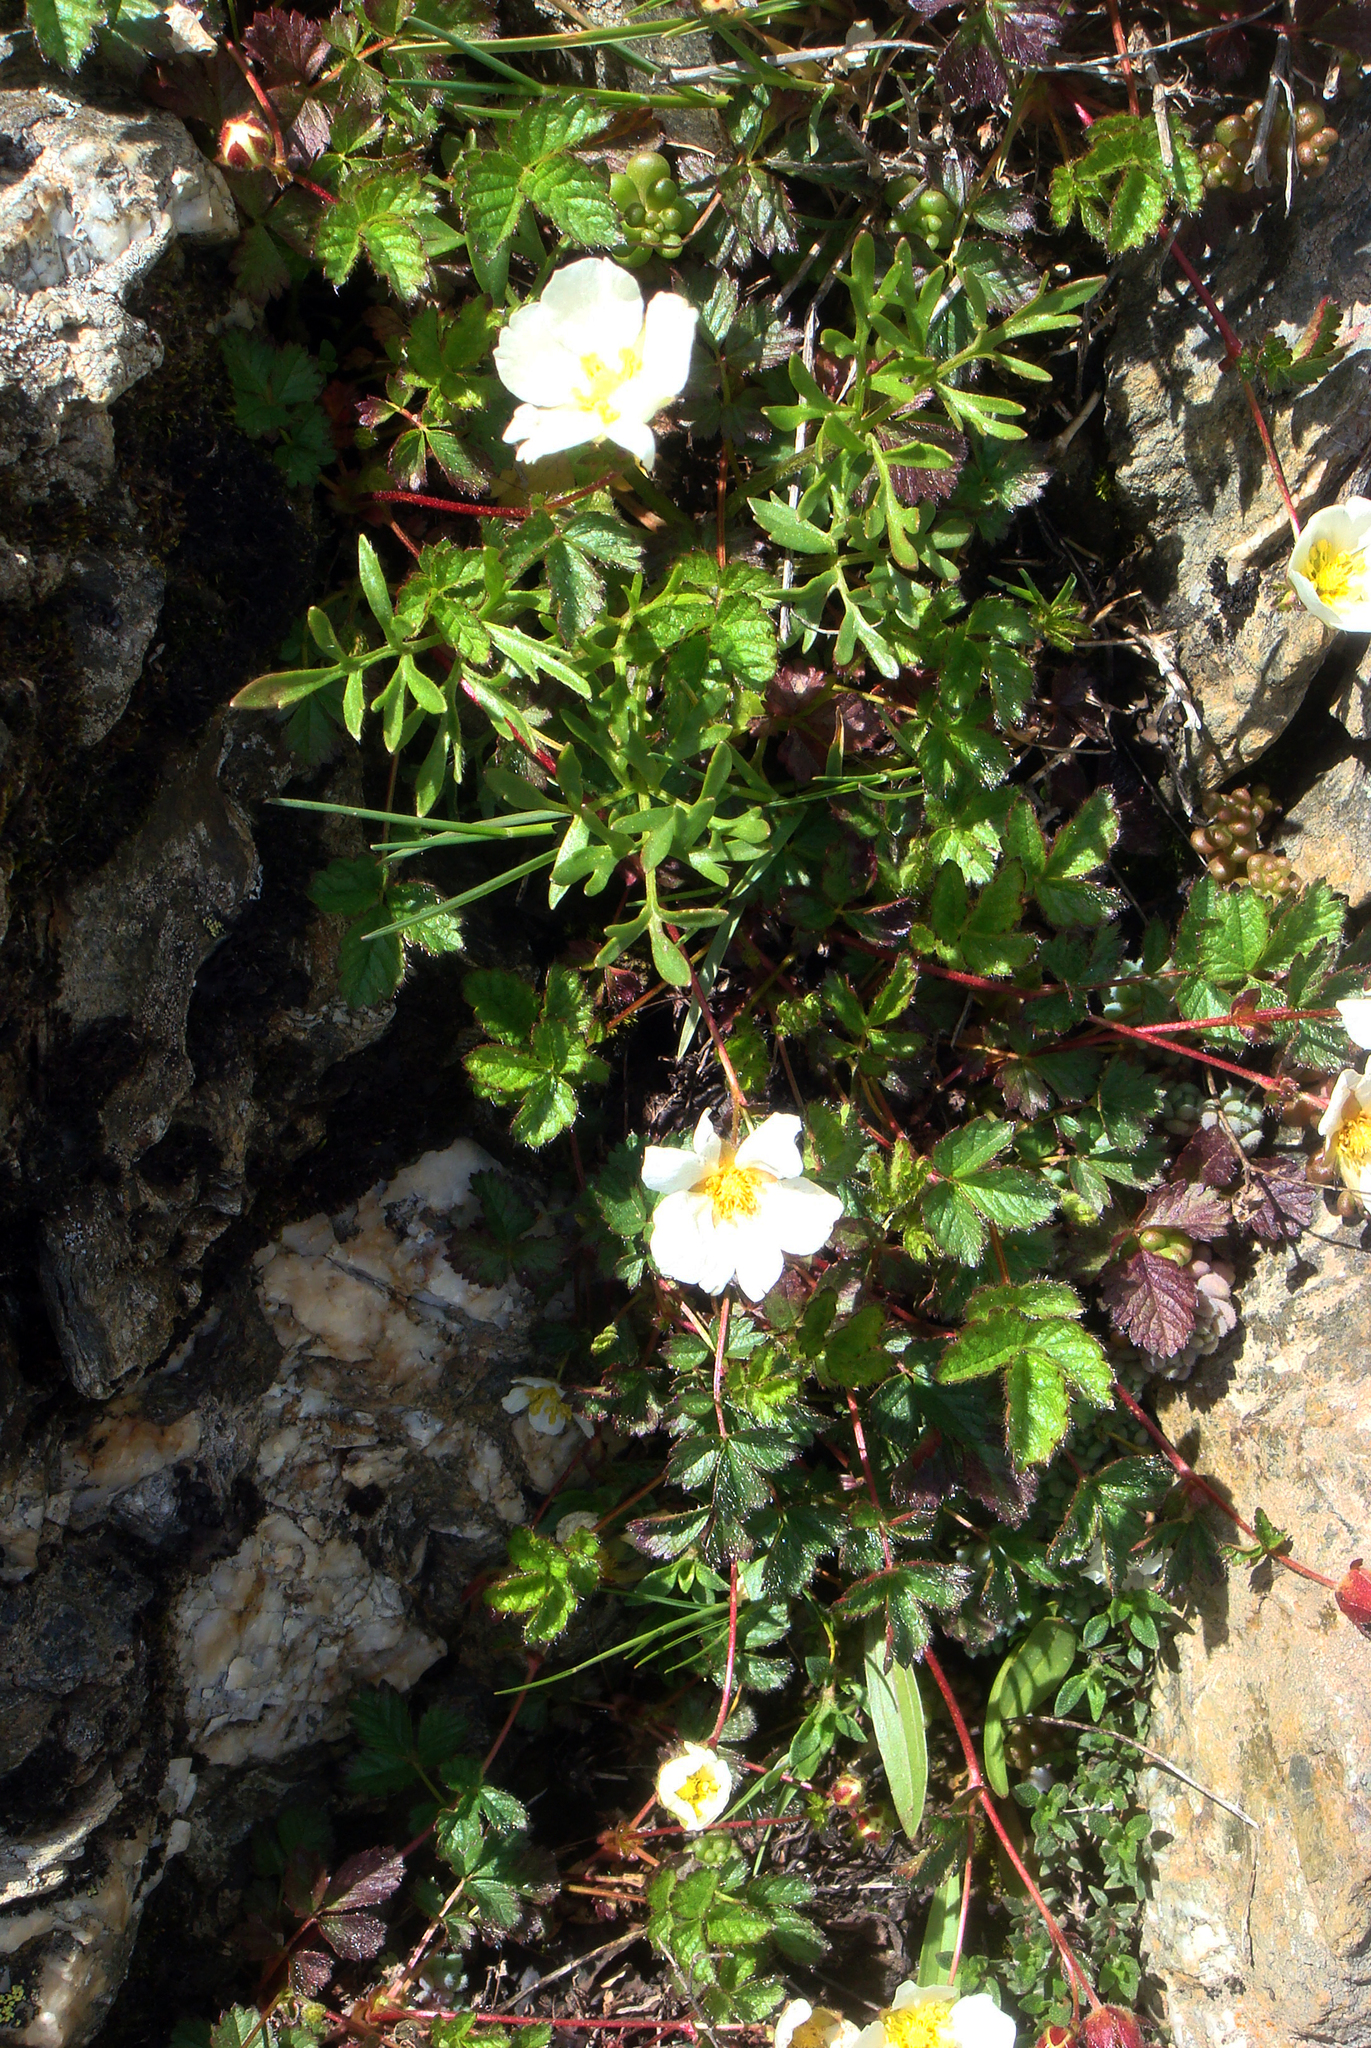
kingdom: Plantae
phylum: Tracheophyta
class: Magnoliopsida
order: Rosales
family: Rosaceae
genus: Drymocallis
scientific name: Drymocallis corsica
